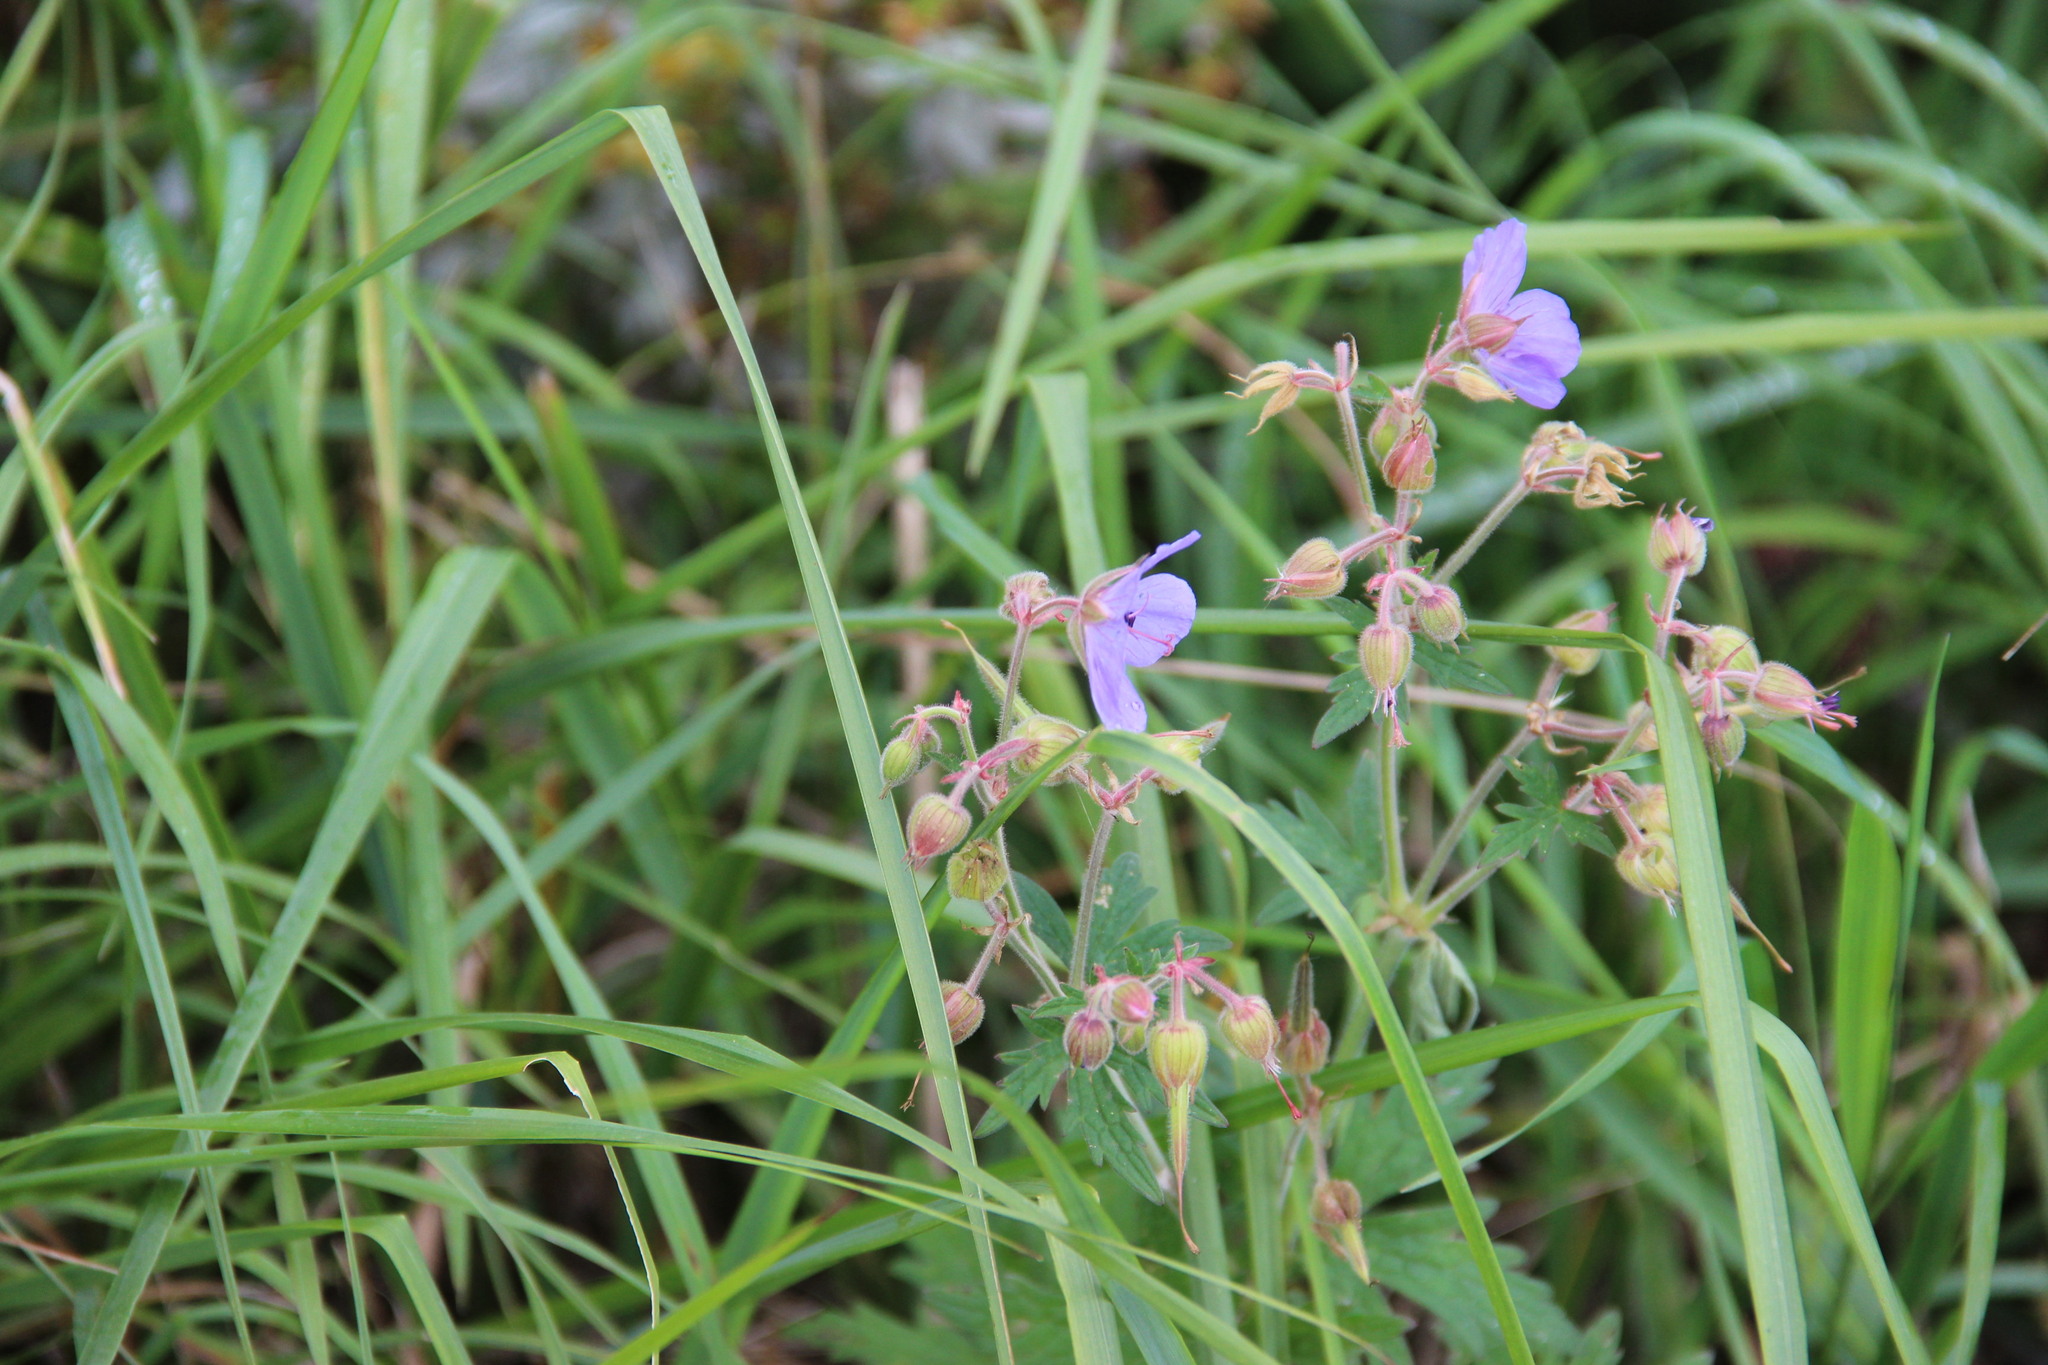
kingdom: Plantae
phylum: Tracheophyta
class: Magnoliopsida
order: Geraniales
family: Geraniaceae
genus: Geranium
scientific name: Geranium pratense
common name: Meadow crane's-bill
